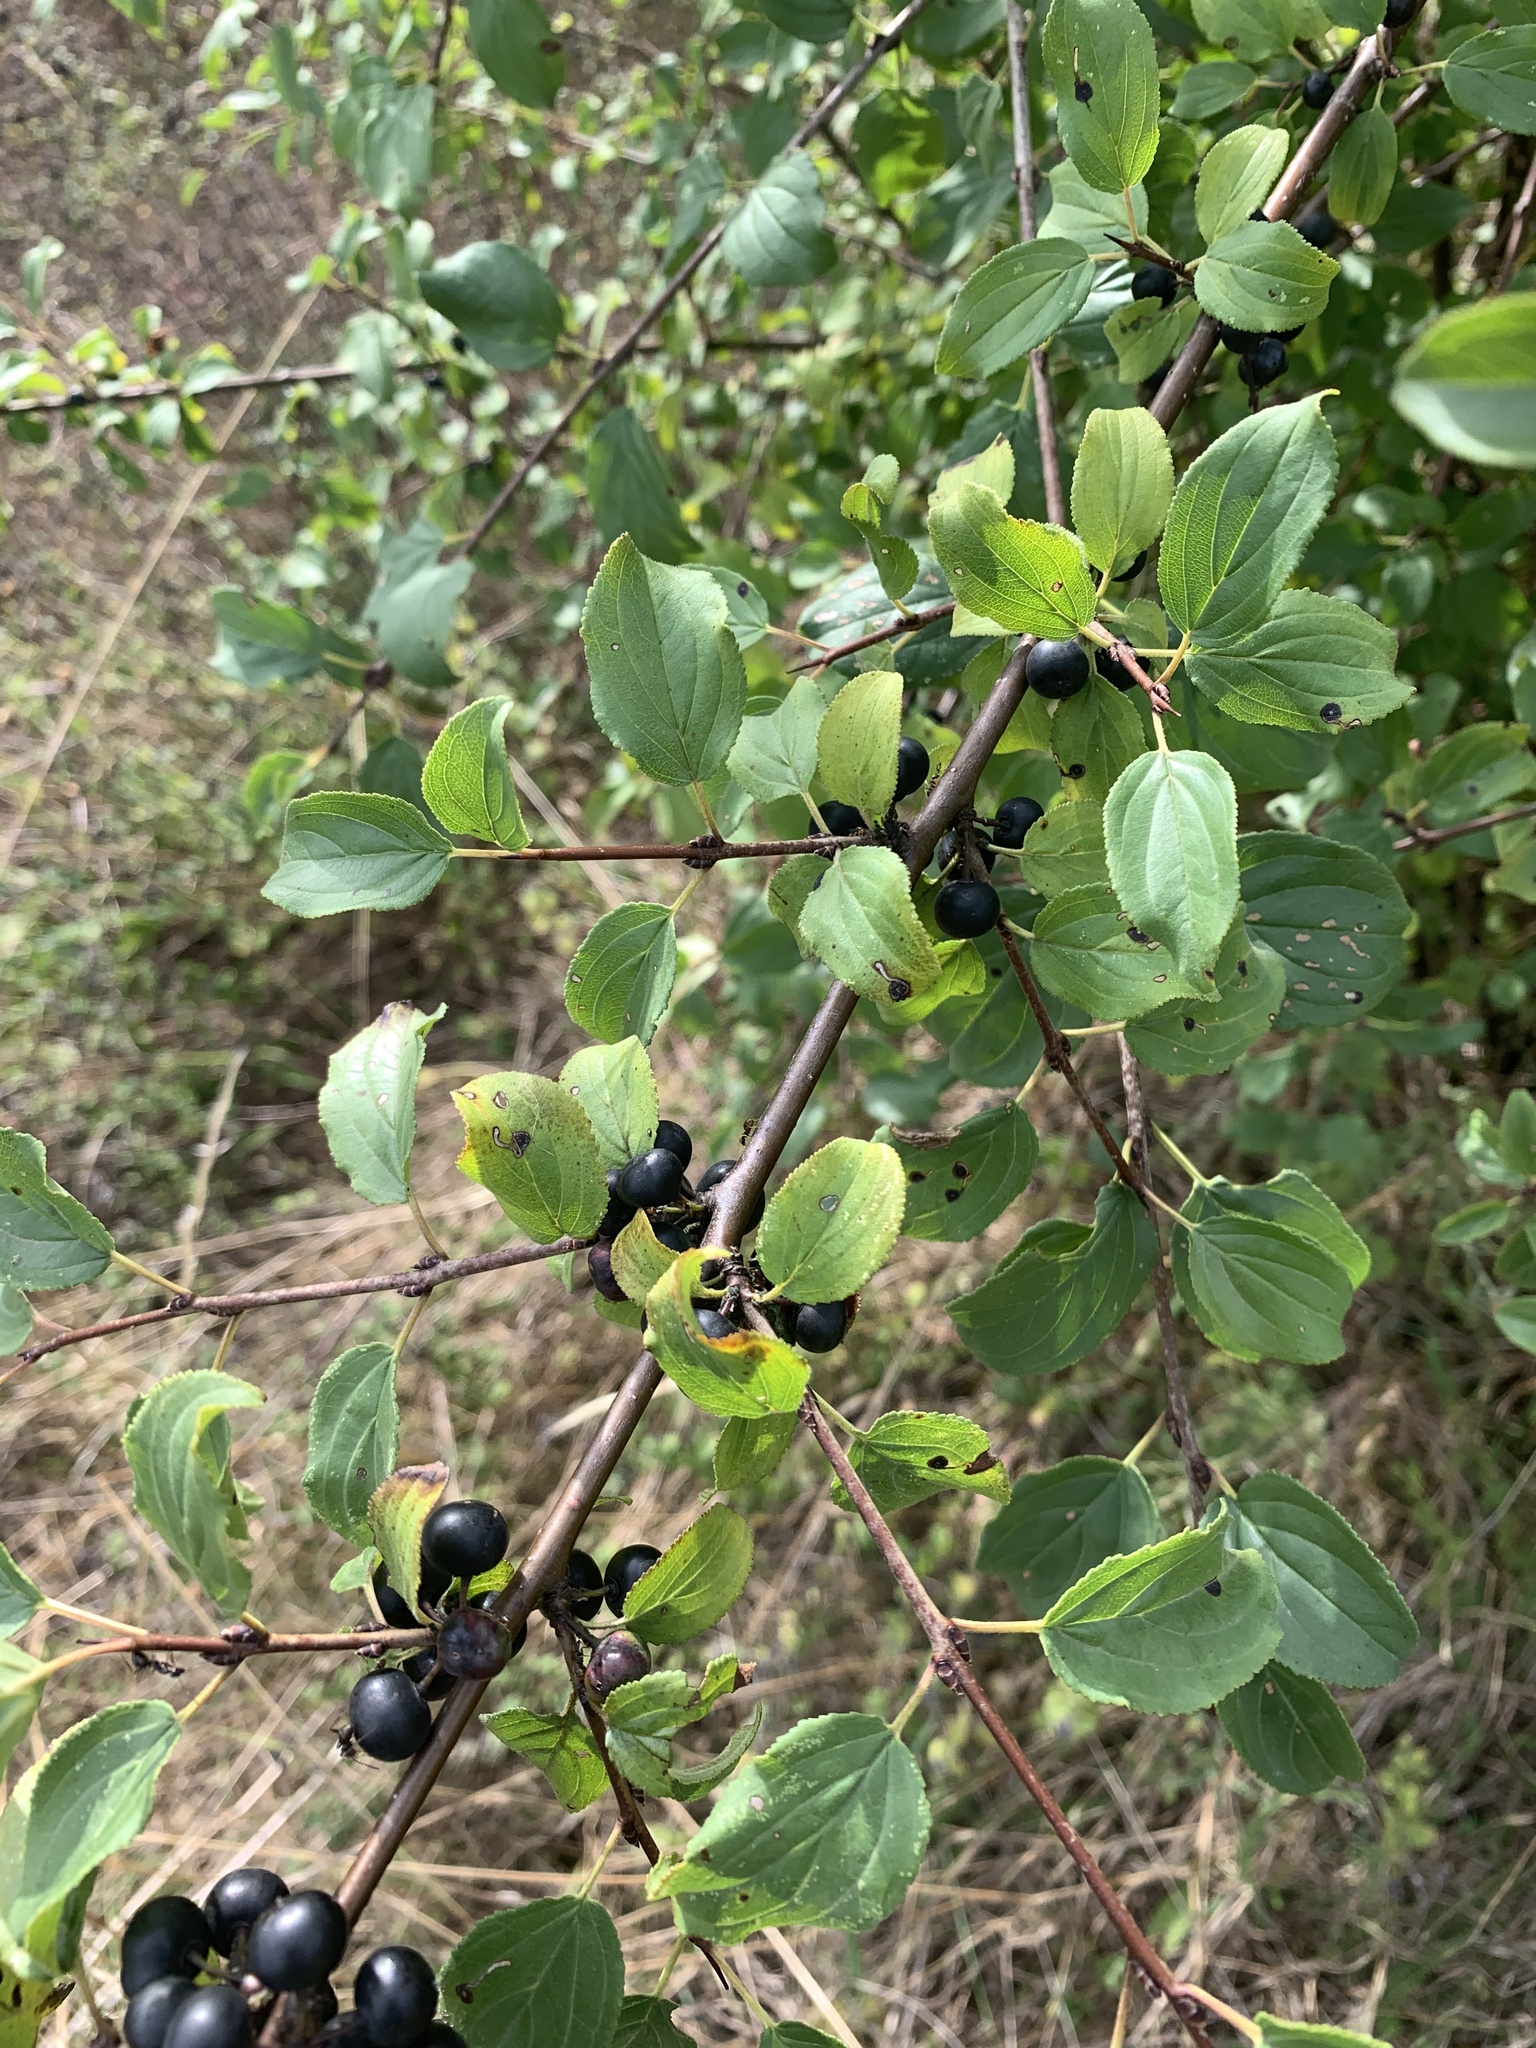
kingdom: Plantae
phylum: Tracheophyta
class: Magnoliopsida
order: Rosales
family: Rhamnaceae
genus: Rhamnus
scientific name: Rhamnus cathartica
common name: Common buckthorn
